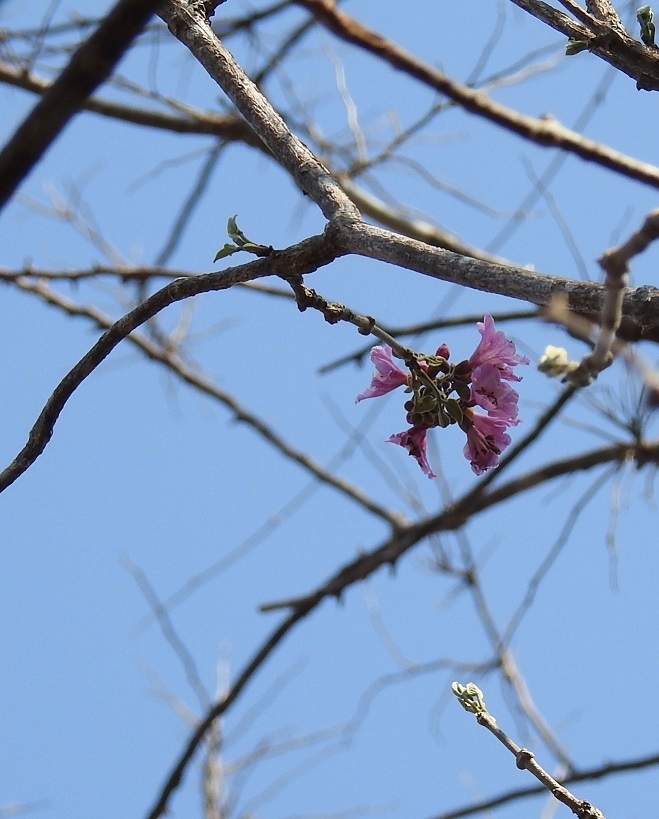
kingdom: Plantae
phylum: Tracheophyta
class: Magnoliopsida
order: Lamiales
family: Bignoniaceae
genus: Handroanthus
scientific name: Handroanthus impetiginosum
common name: Pink trumpet tree
